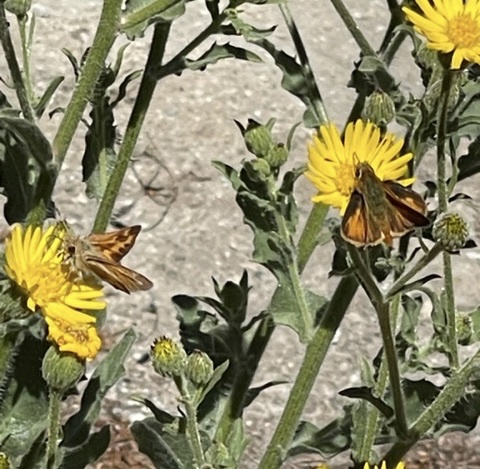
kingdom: Animalia
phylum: Arthropoda
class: Insecta
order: Lepidoptera
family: Hesperiidae
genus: Ochlodes
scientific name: Ochlodes sylvanoides
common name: Woodland skipper
